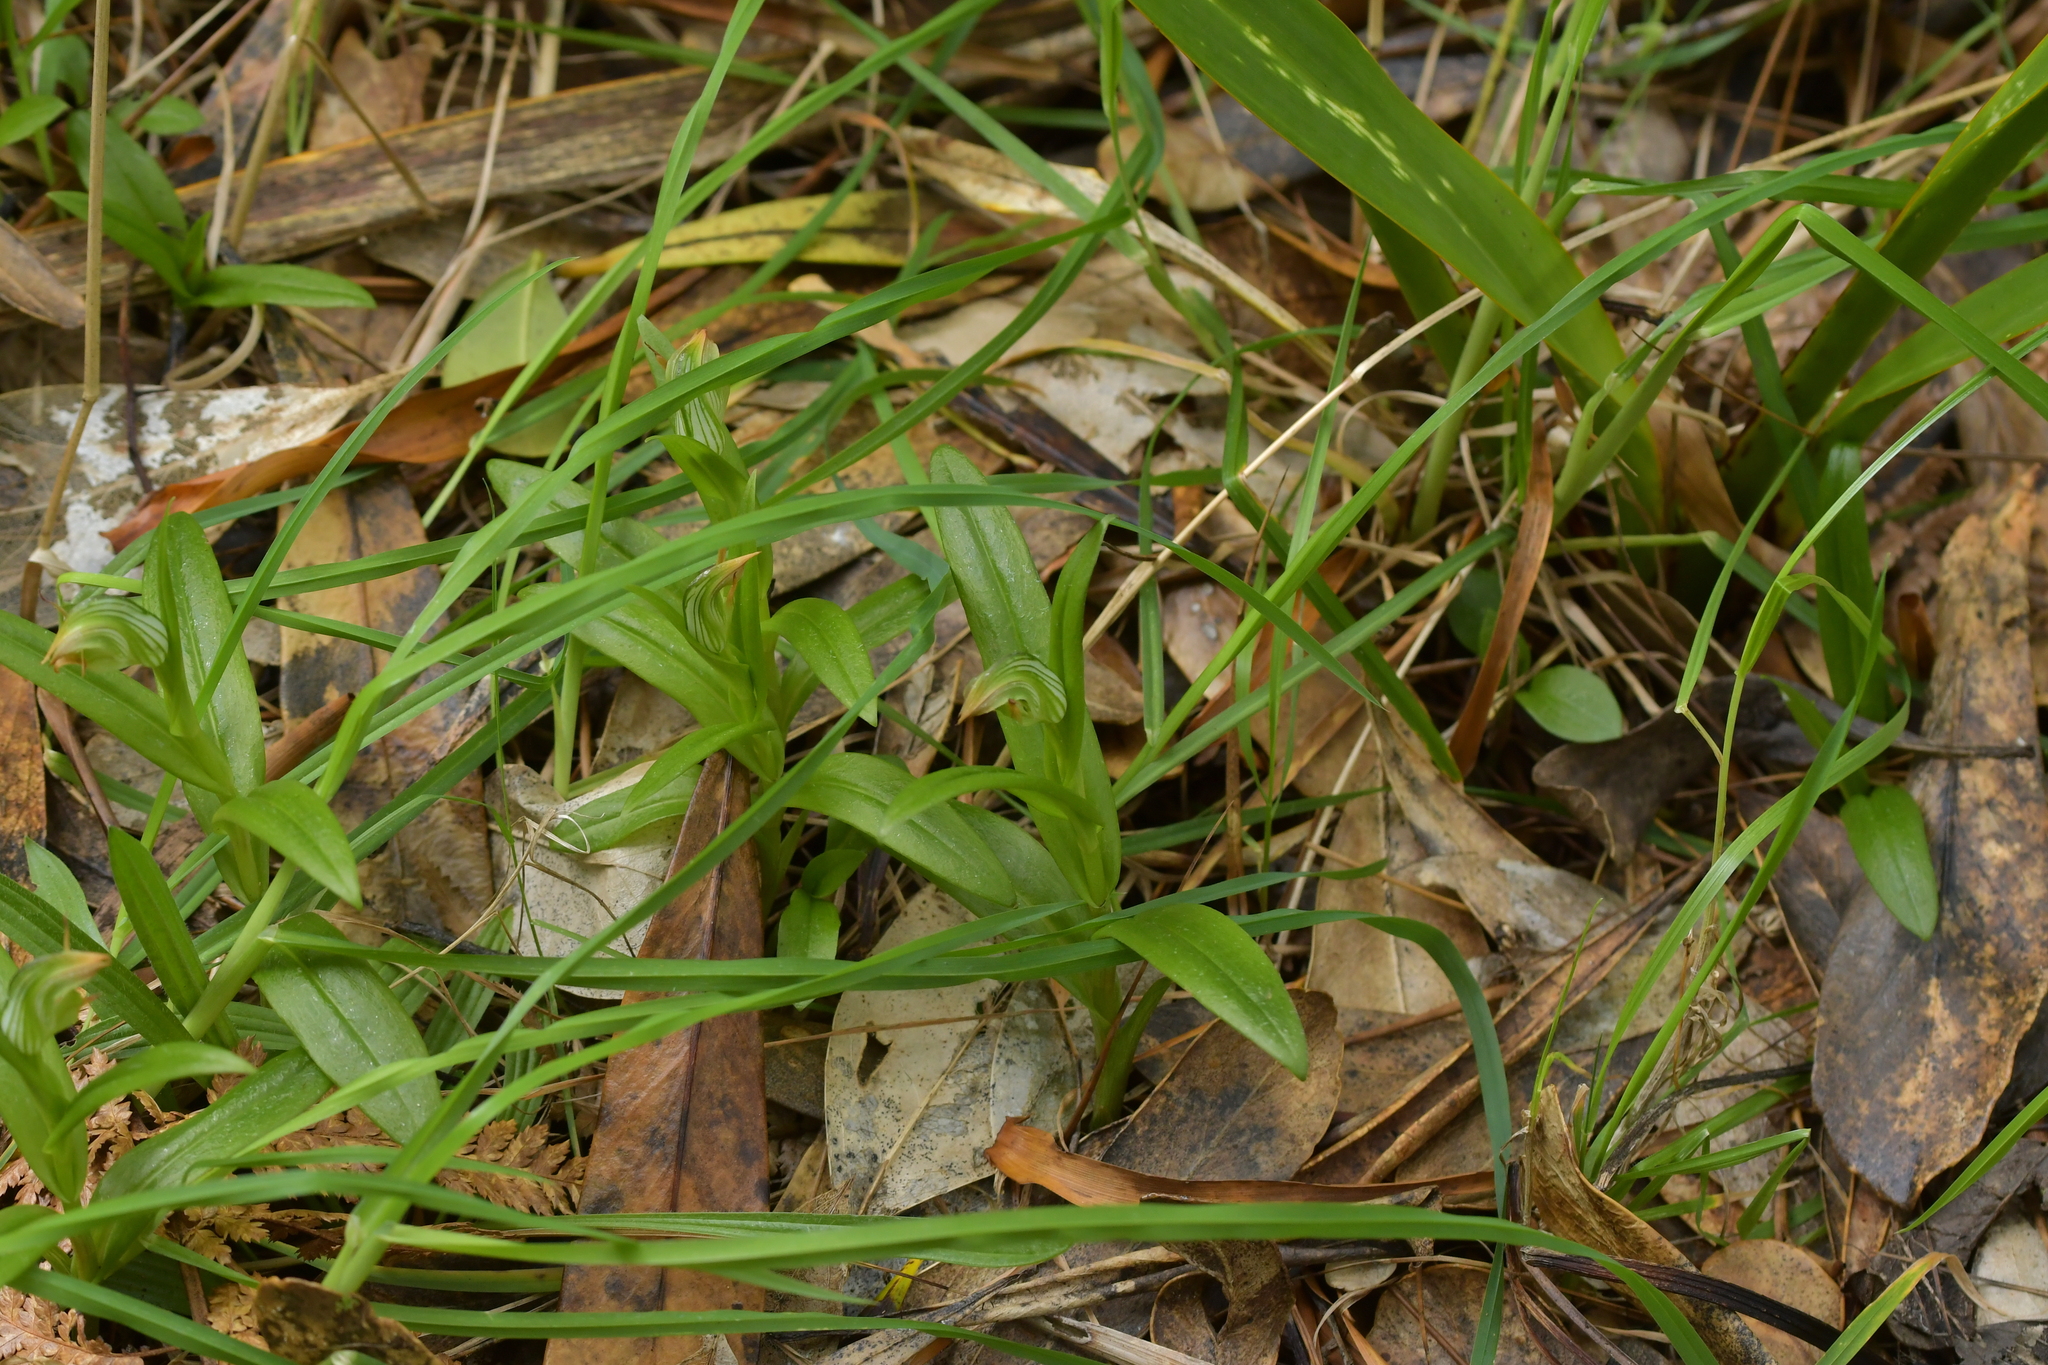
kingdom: Plantae
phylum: Tracheophyta
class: Liliopsida
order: Asparagales
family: Orchidaceae
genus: Pterostylis
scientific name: Pterostylis silvicultrix
